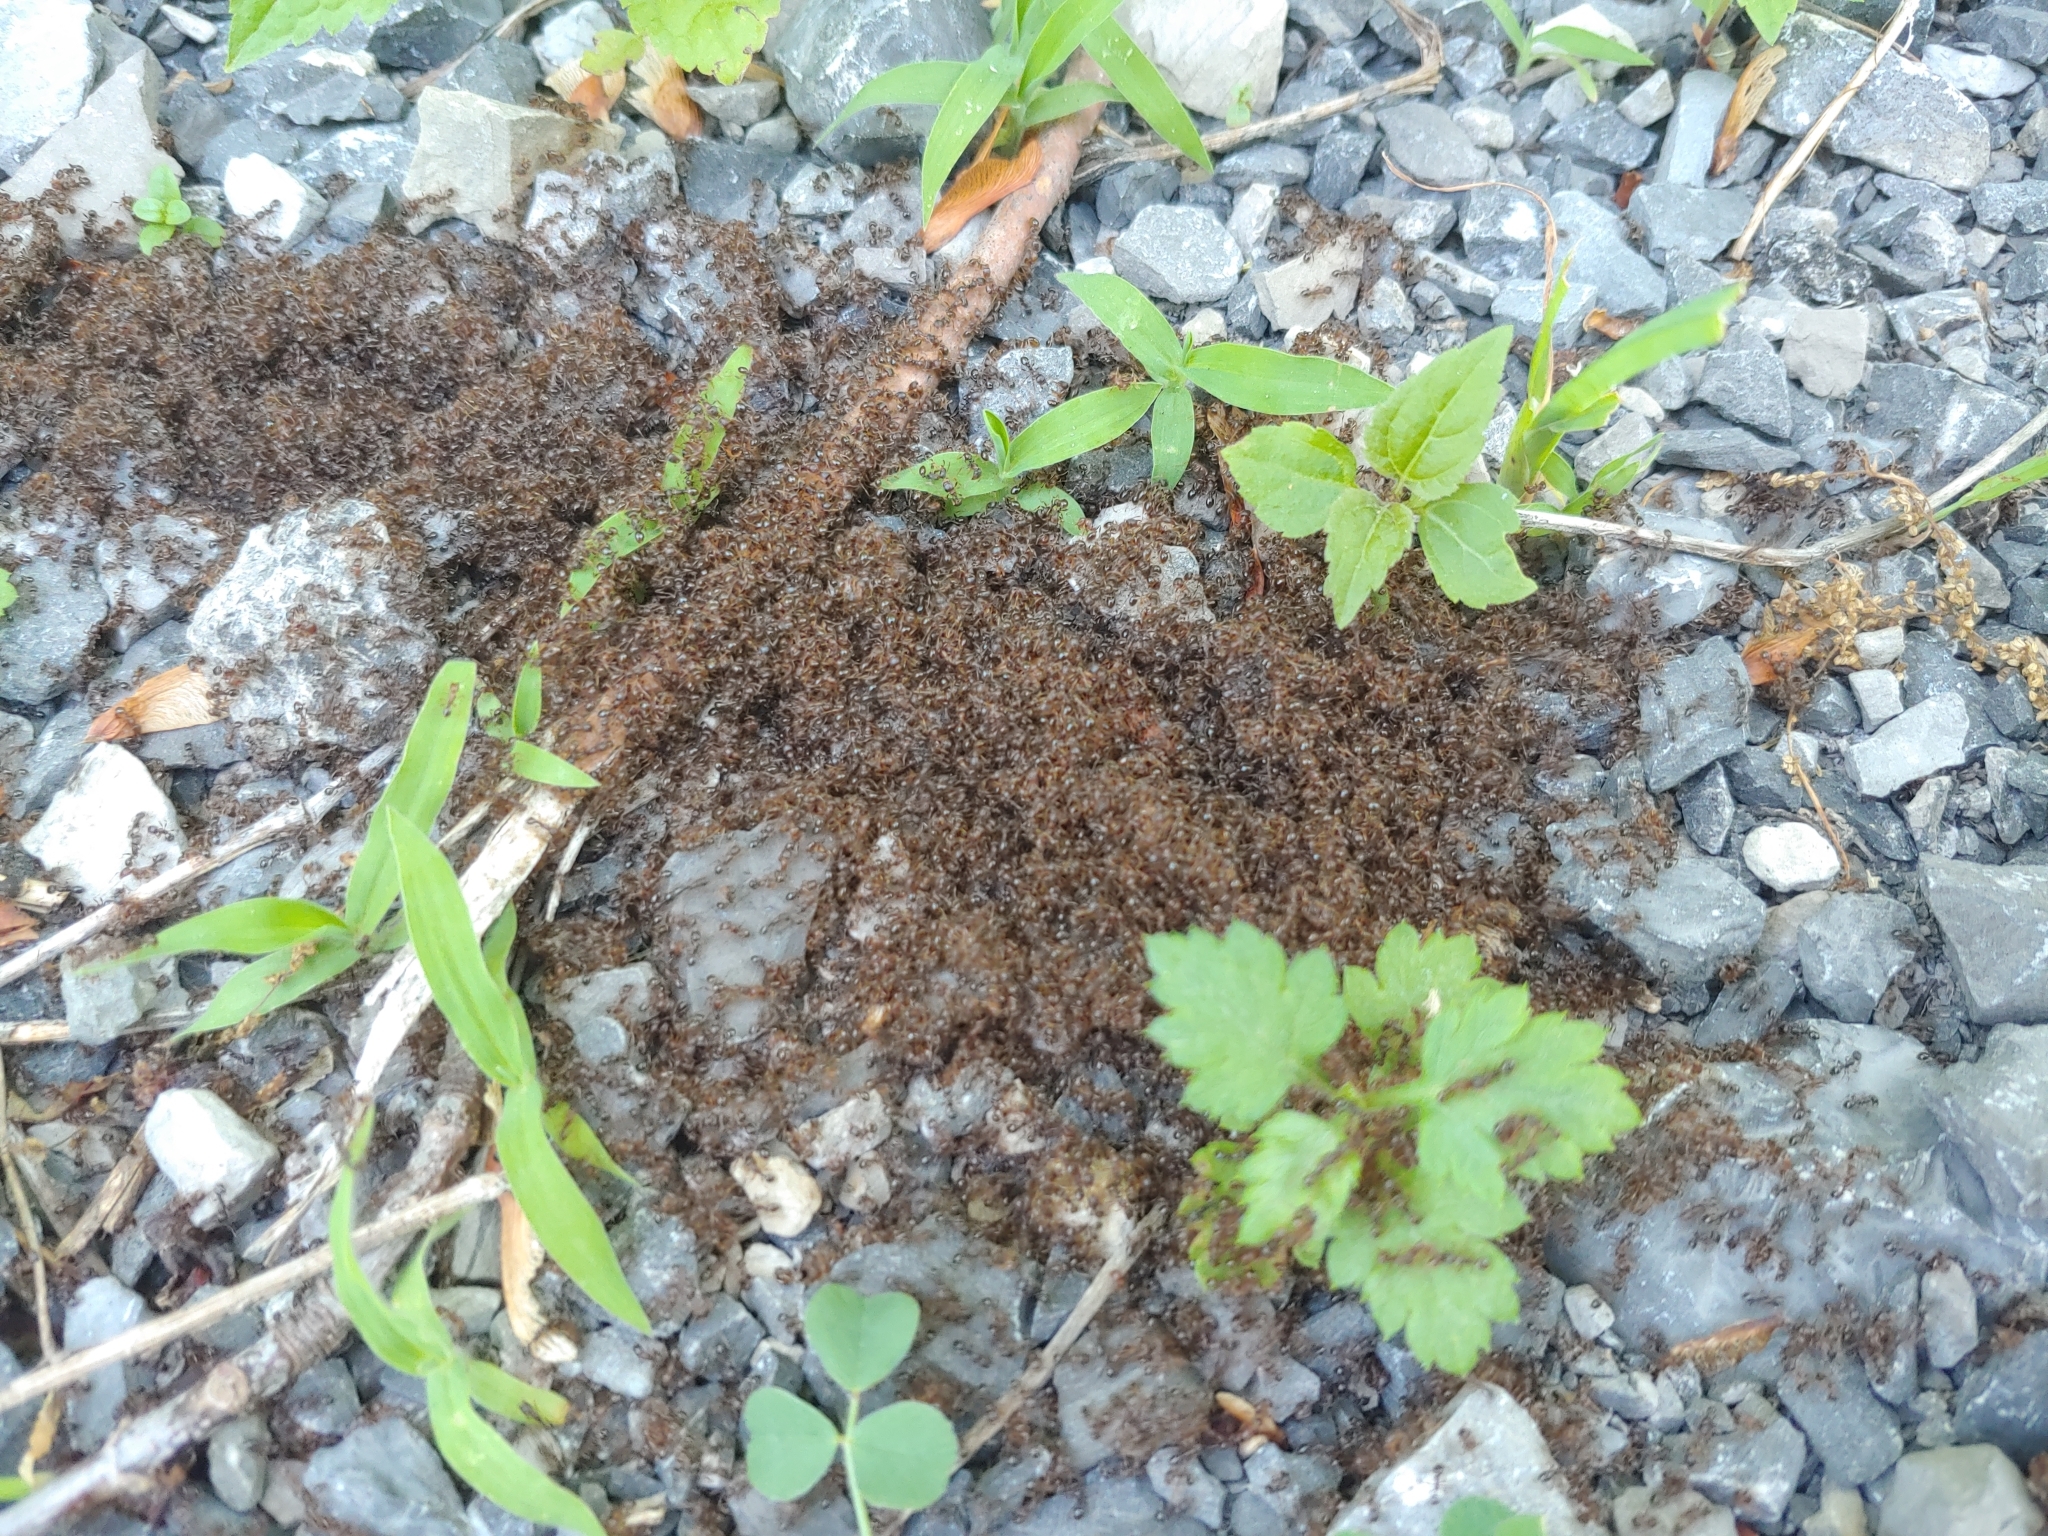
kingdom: Animalia
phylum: Arthropoda
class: Insecta
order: Hymenoptera
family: Formicidae
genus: Tetramorium
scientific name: Tetramorium immigrans
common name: Pavement ant
